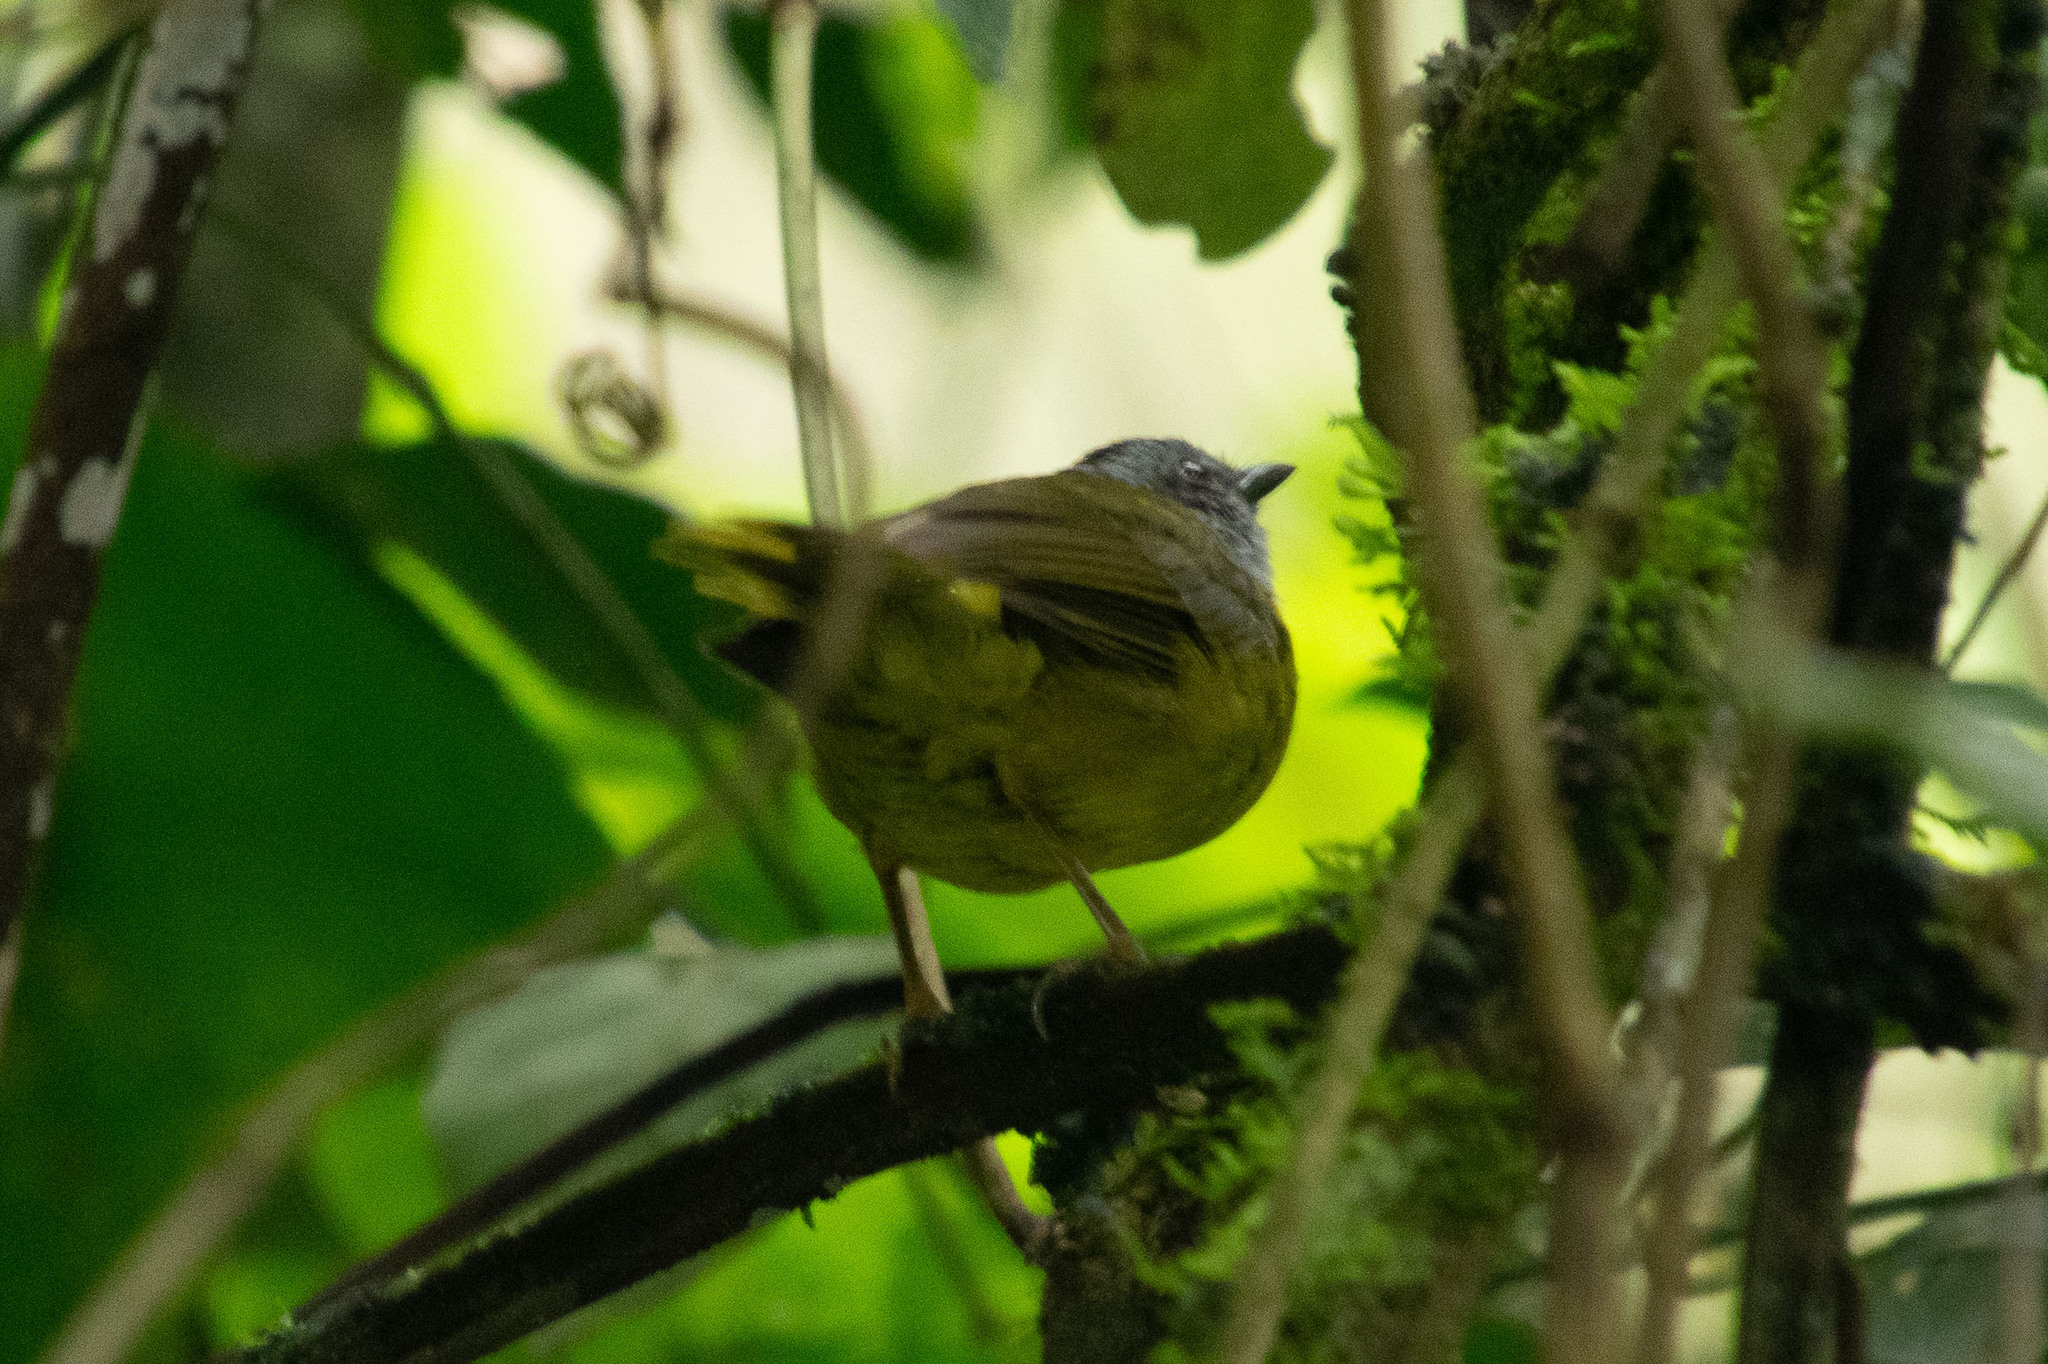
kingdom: Animalia
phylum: Chordata
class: Aves
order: Passeriformes
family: Parulidae
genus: Myiothlypis
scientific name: Myiothlypis coronata
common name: Russet-crowned warbler
